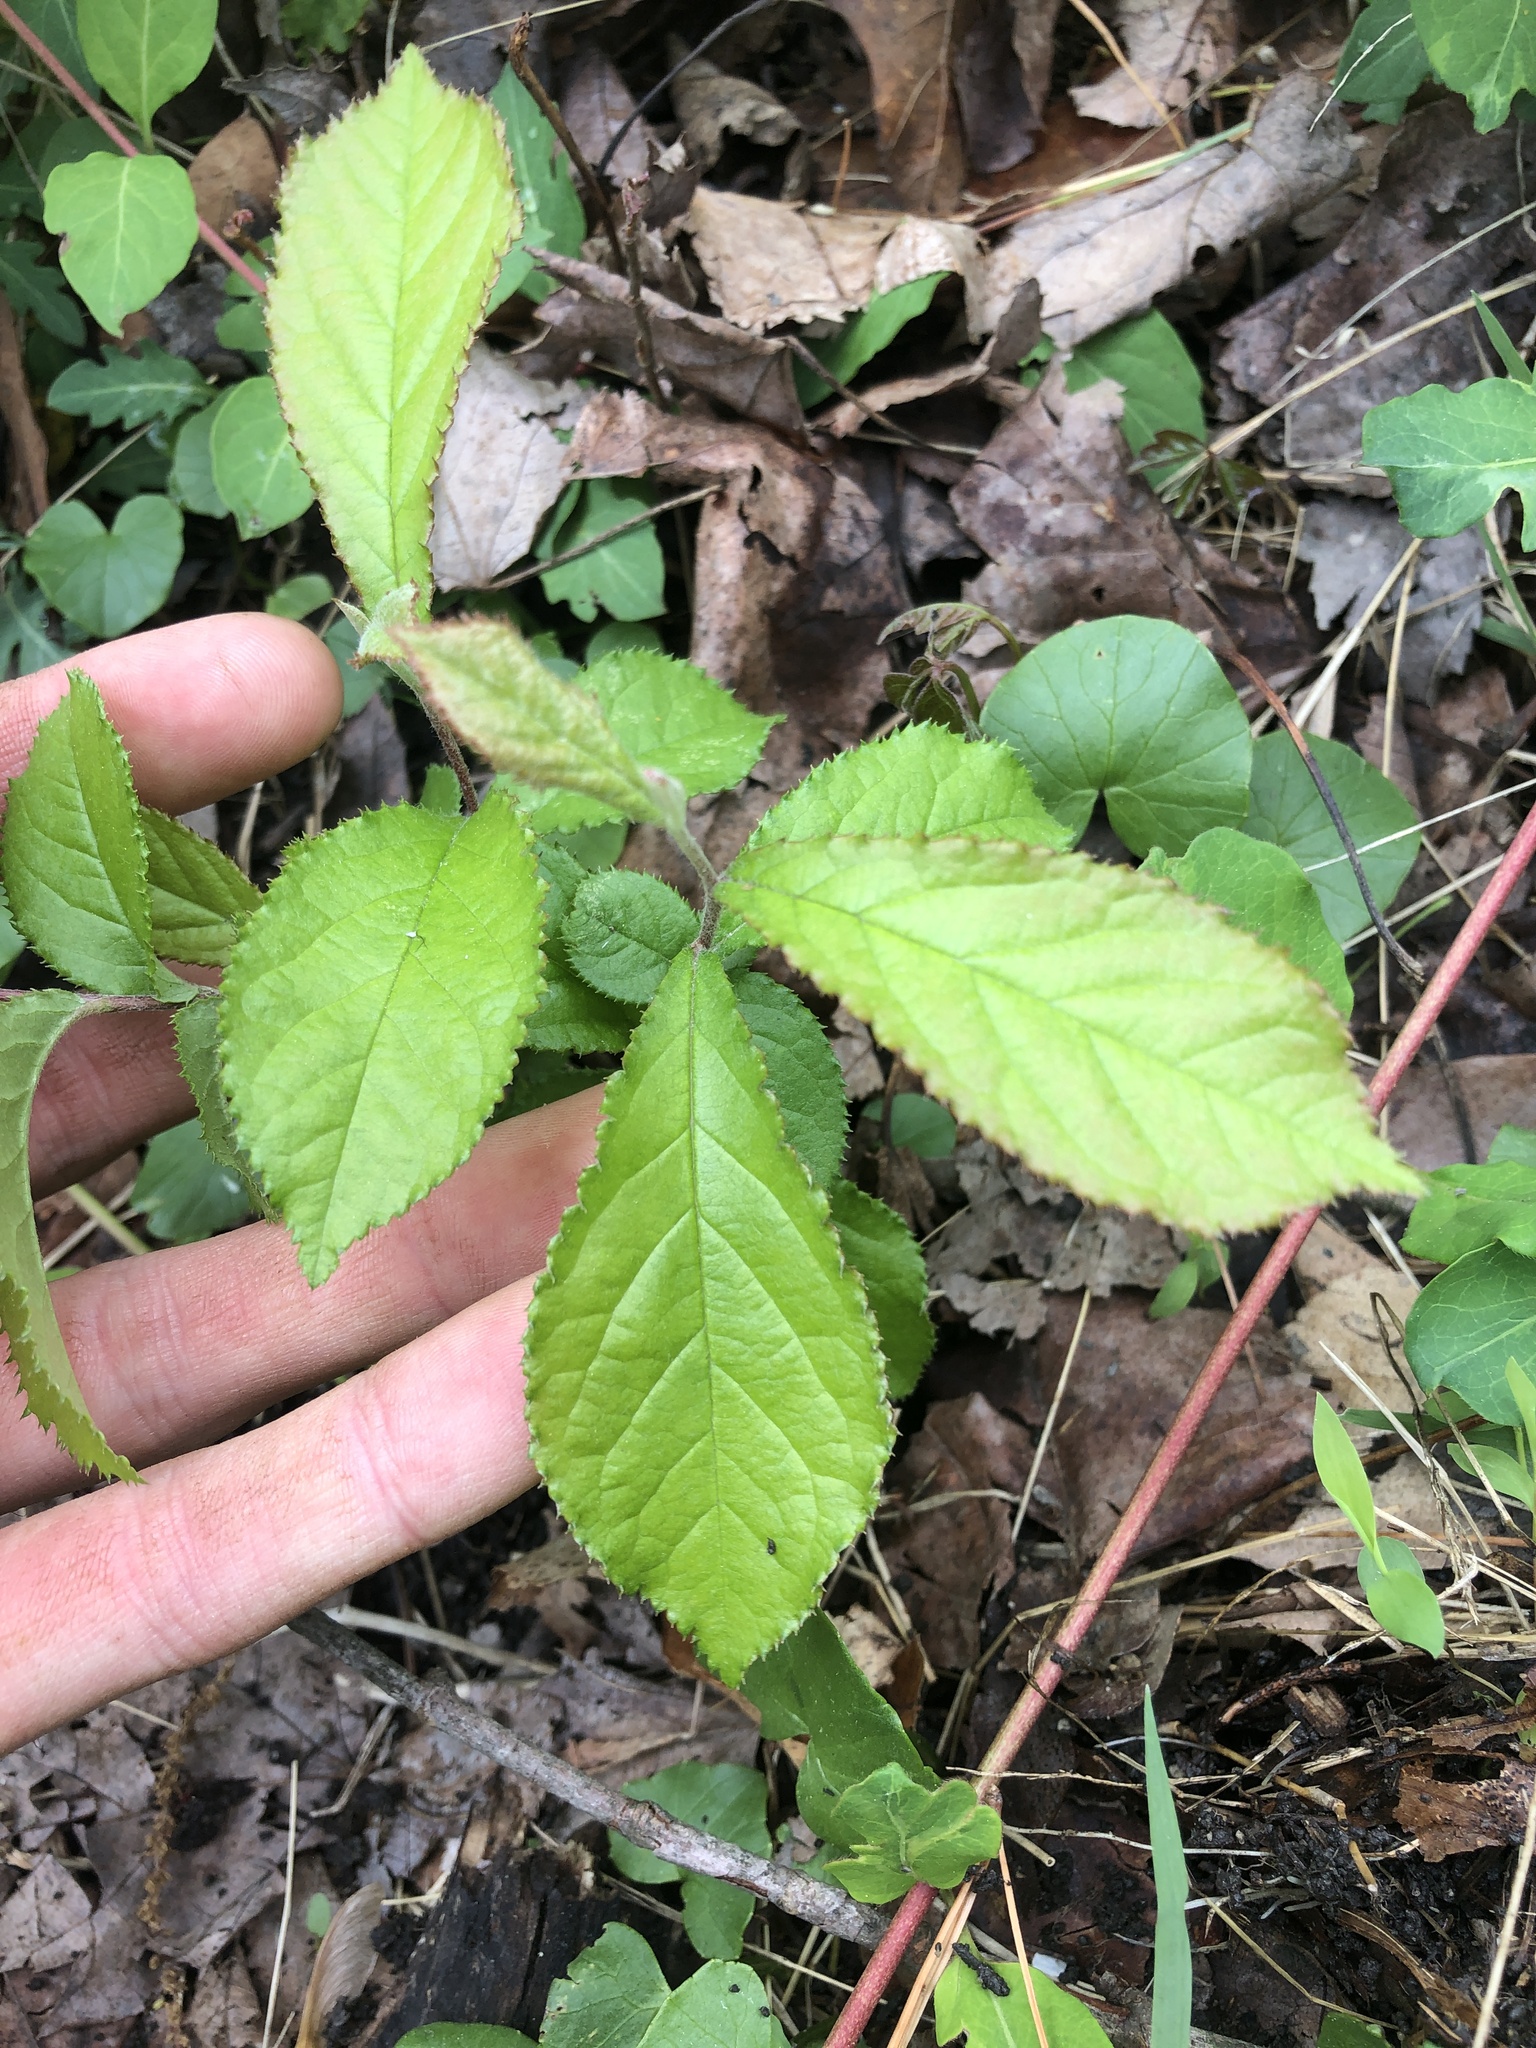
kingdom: Plantae
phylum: Tracheophyta
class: Magnoliopsida
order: Rosales
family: Rosaceae
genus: Pourthiaea
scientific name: Pourthiaea villosa
